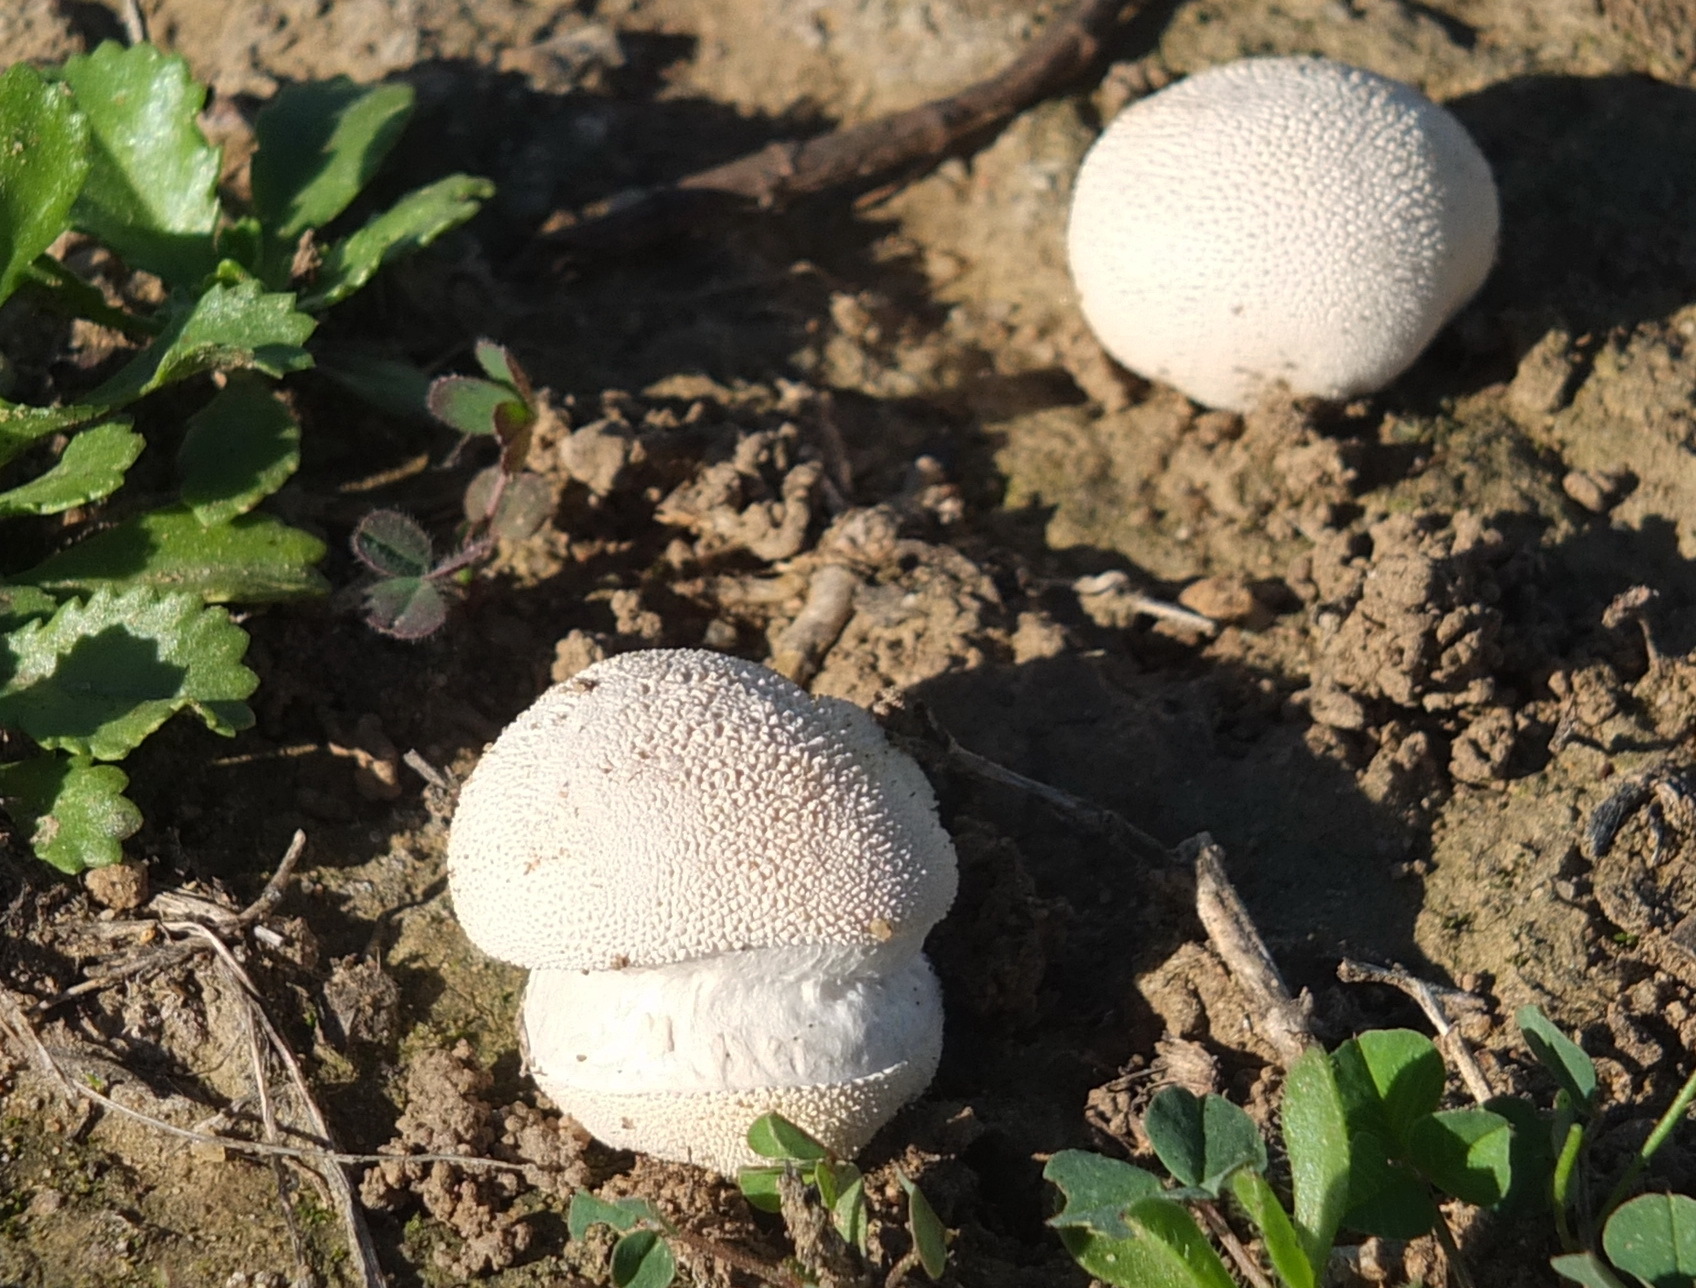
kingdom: Fungi
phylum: Basidiomycota
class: Agaricomycetes
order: Agaricales
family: Lycoperdaceae
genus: Lycoperdon
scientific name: Lycoperdon pratense
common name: Meadow puffball
